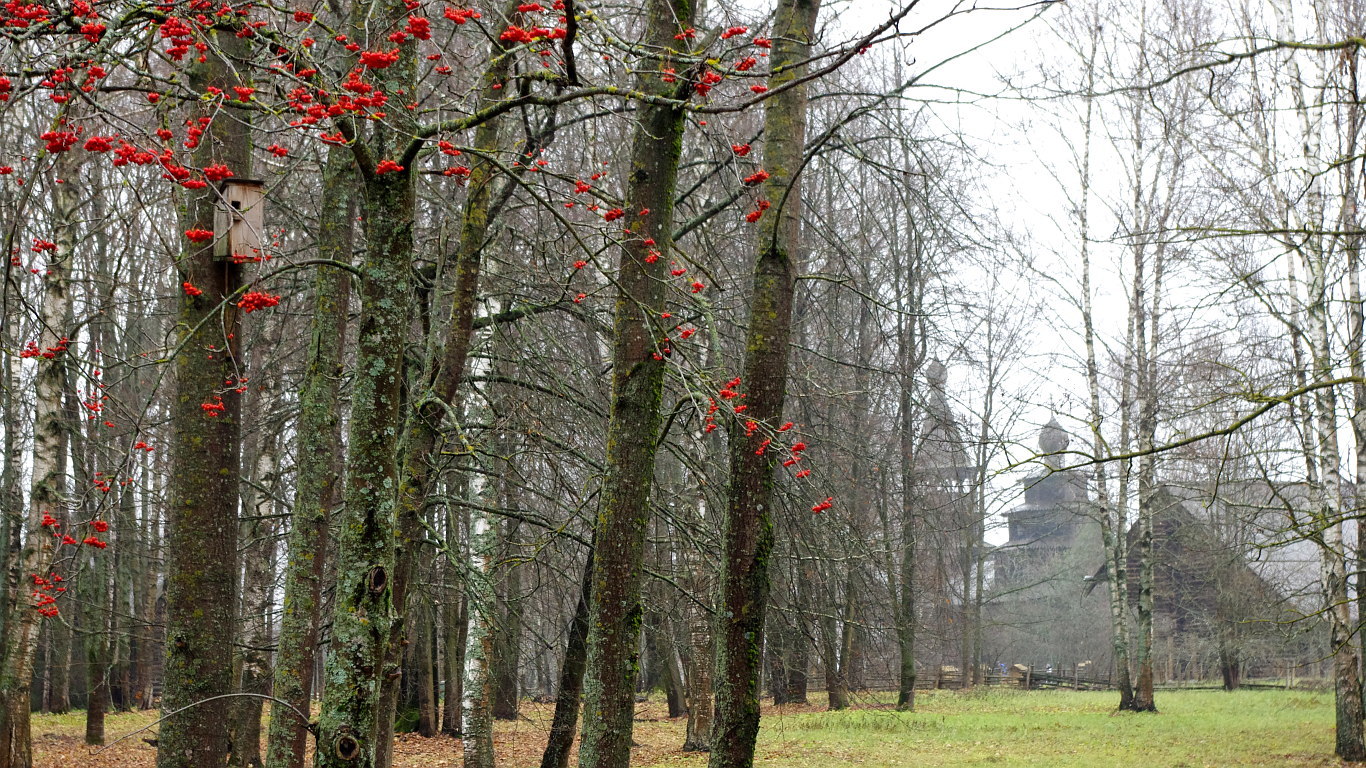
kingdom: Plantae
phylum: Tracheophyta
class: Magnoliopsida
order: Rosales
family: Rosaceae
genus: Sorbus
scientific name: Sorbus aucuparia
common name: Rowan
